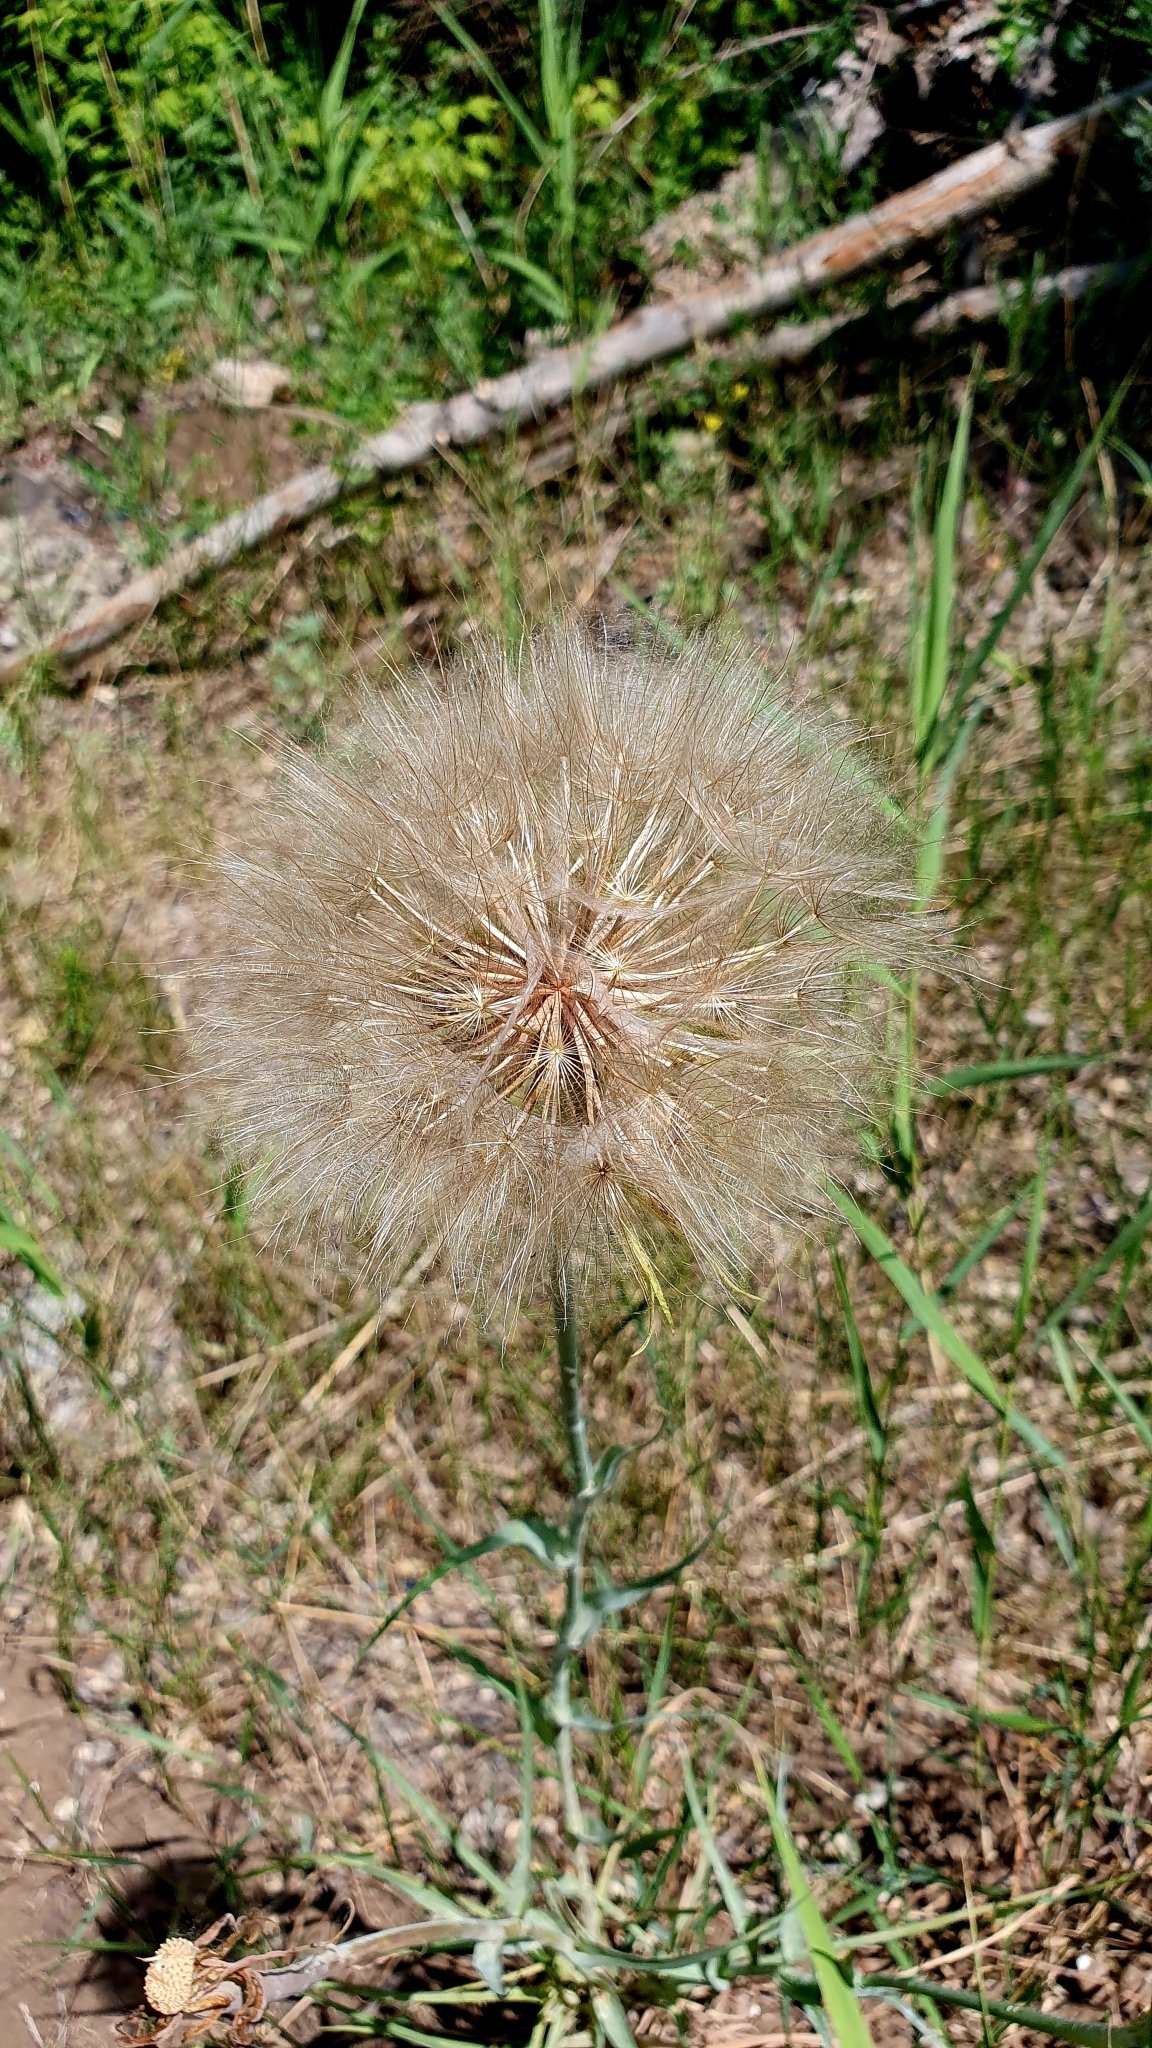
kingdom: Plantae
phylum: Tracheophyta
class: Magnoliopsida
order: Asterales
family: Asteraceae
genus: Tragopogon
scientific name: Tragopogon dubius
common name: Yellow salsify
